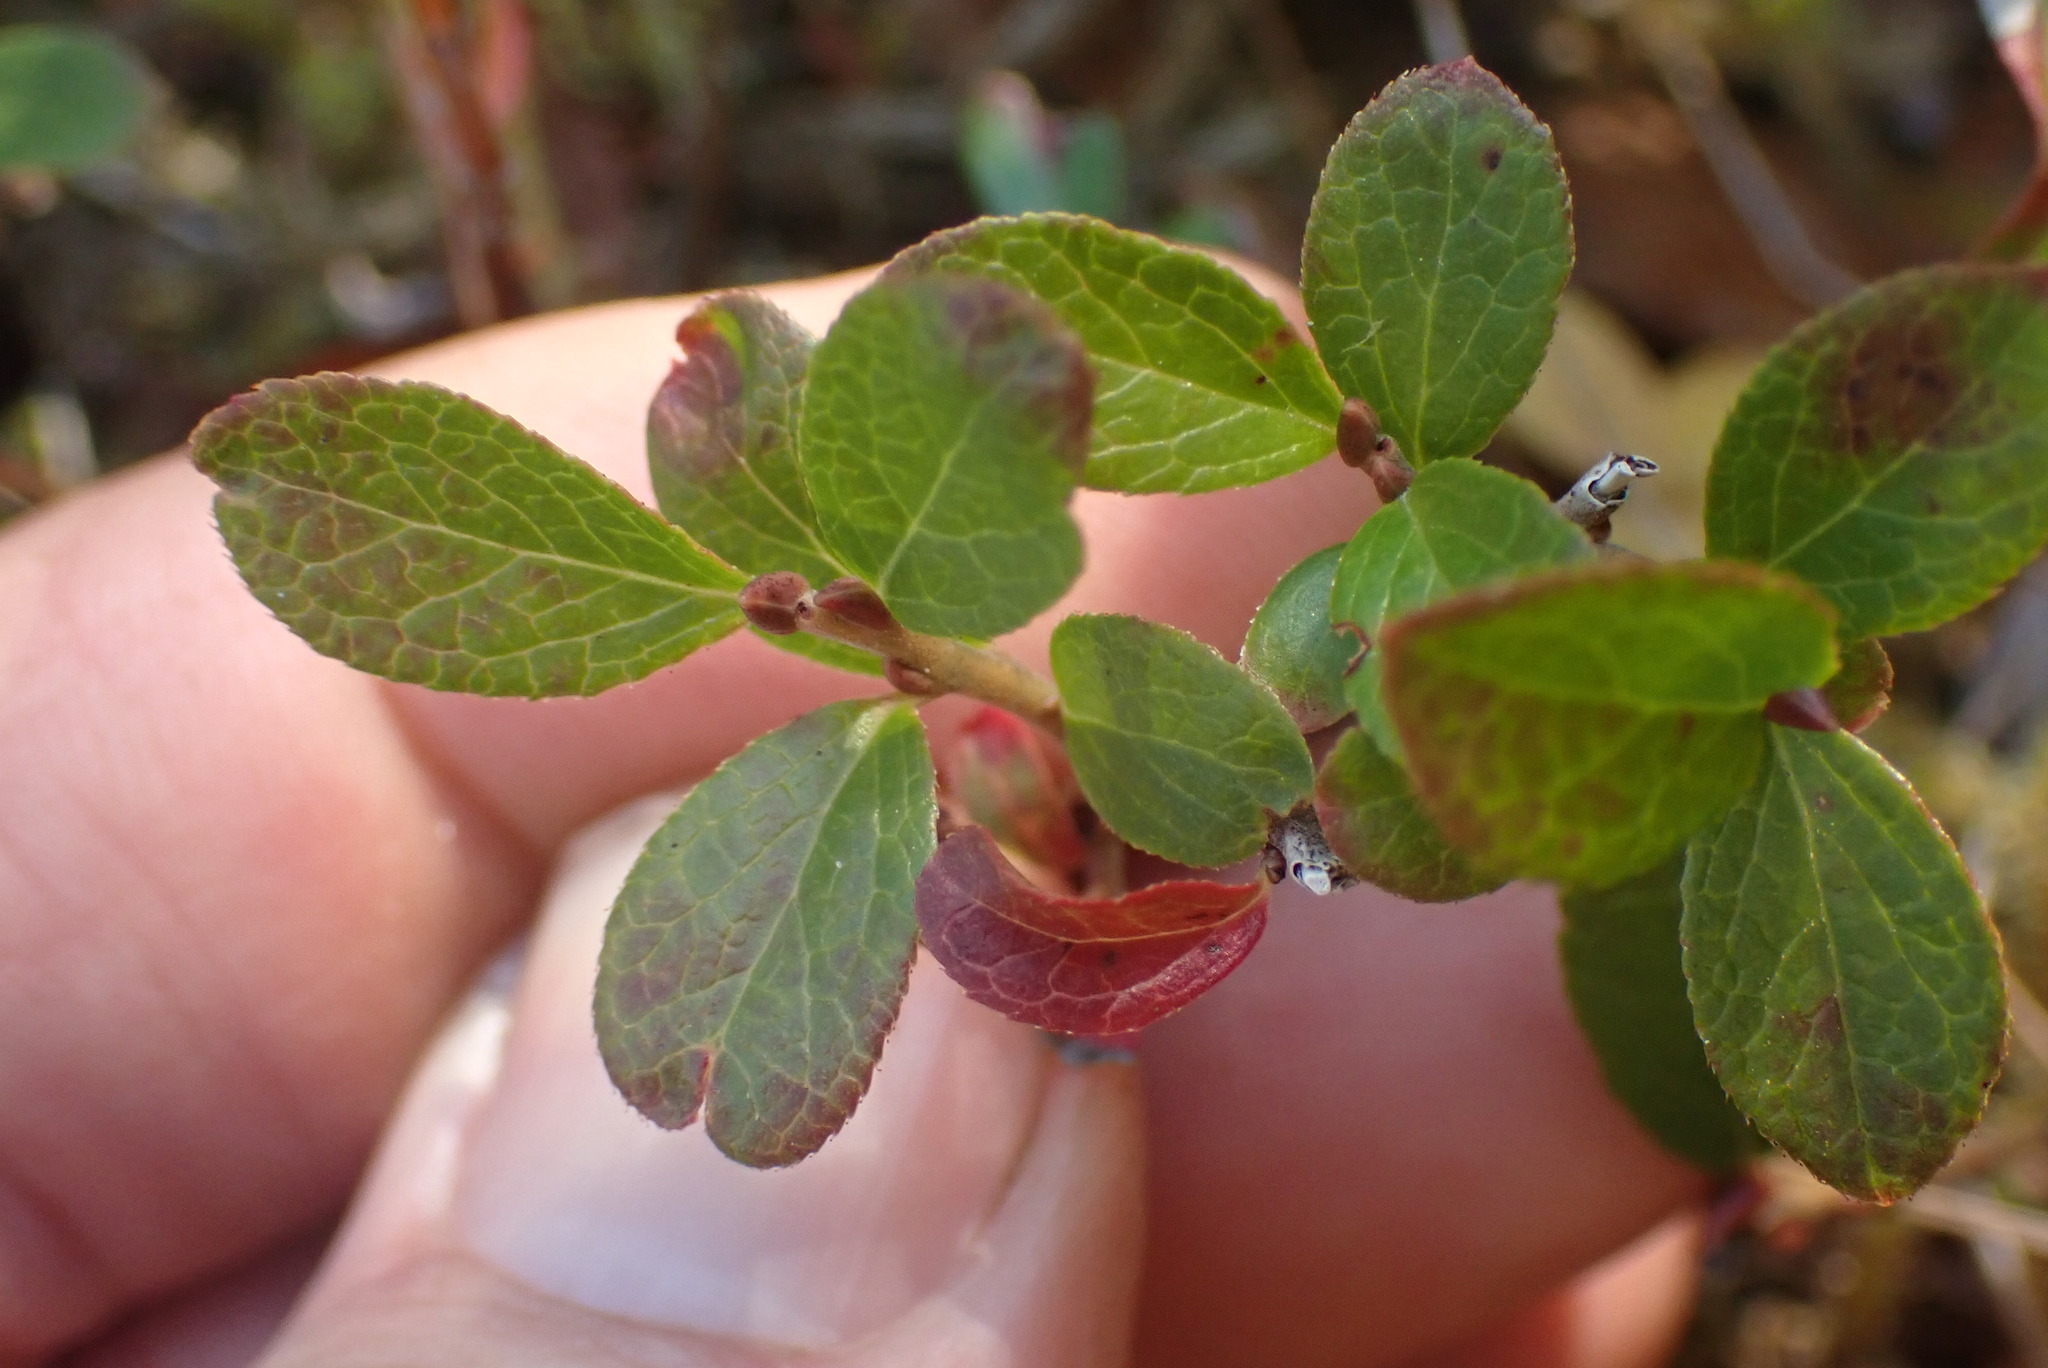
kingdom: Plantae
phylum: Tracheophyta
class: Magnoliopsida
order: Ericales
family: Ericaceae
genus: Vaccinium
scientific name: Vaccinium cespitosum
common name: Dwarf bilberry
